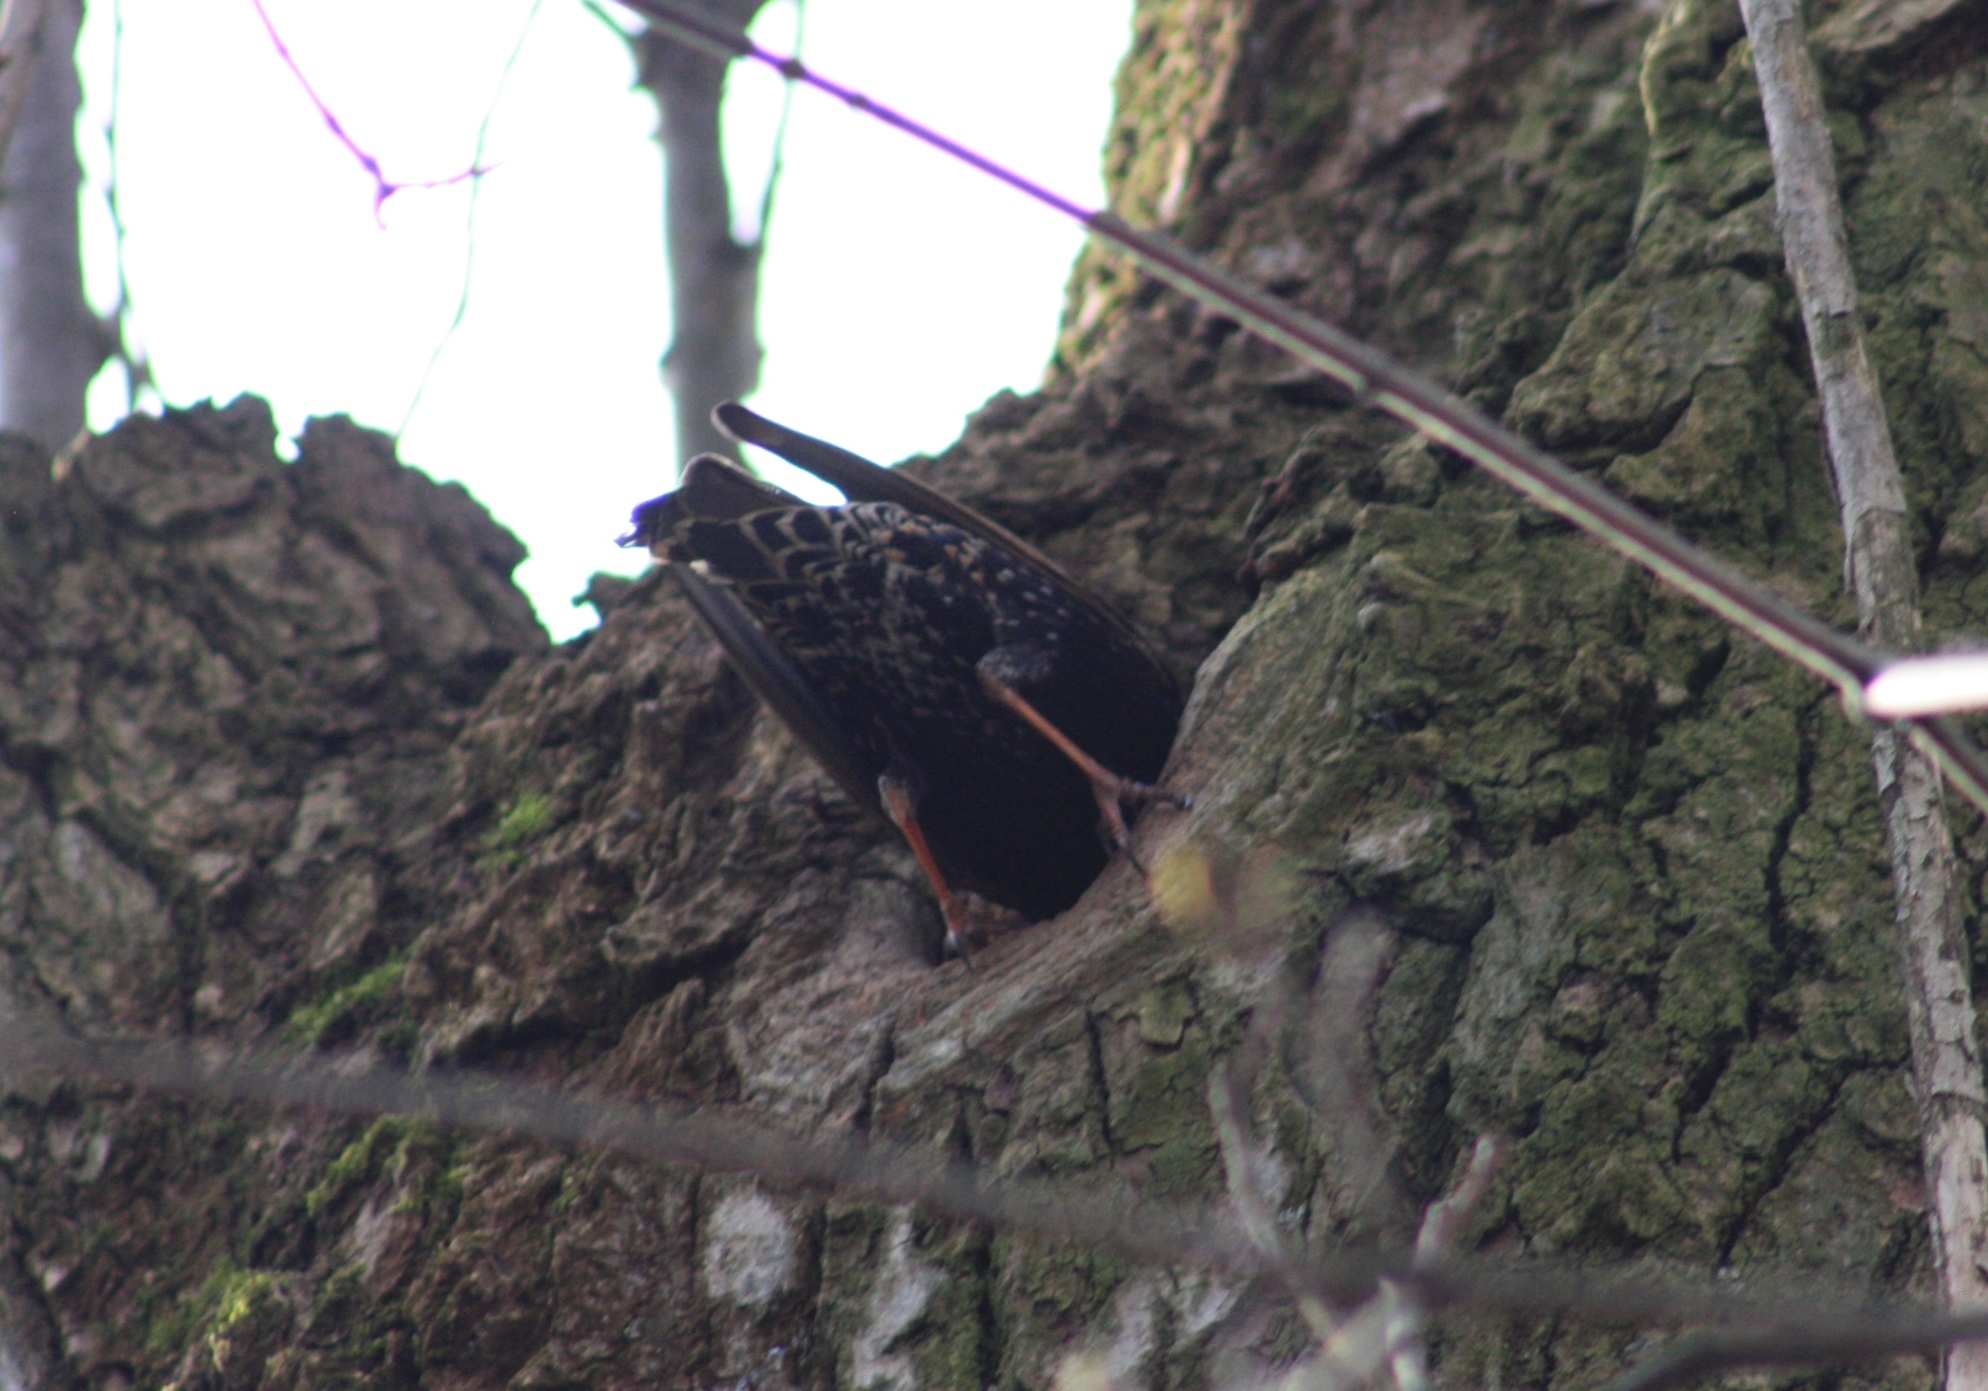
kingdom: Animalia
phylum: Chordata
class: Aves
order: Passeriformes
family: Sturnidae
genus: Sturnus
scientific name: Sturnus vulgaris
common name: Common starling
